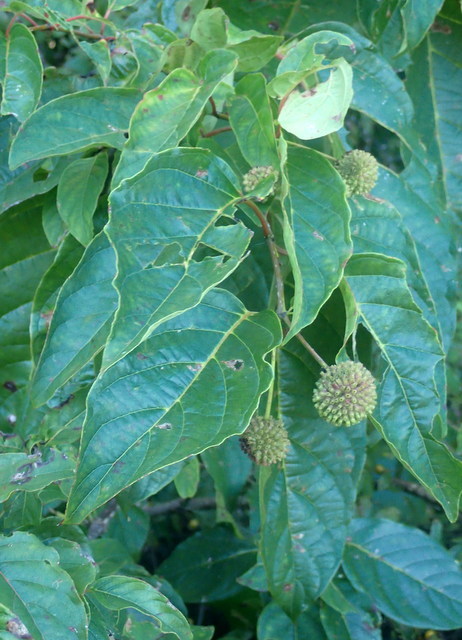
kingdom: Plantae
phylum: Tracheophyta
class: Magnoliopsida
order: Gentianales
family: Rubiaceae
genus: Cephalanthus
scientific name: Cephalanthus occidentalis
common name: Button-willow
